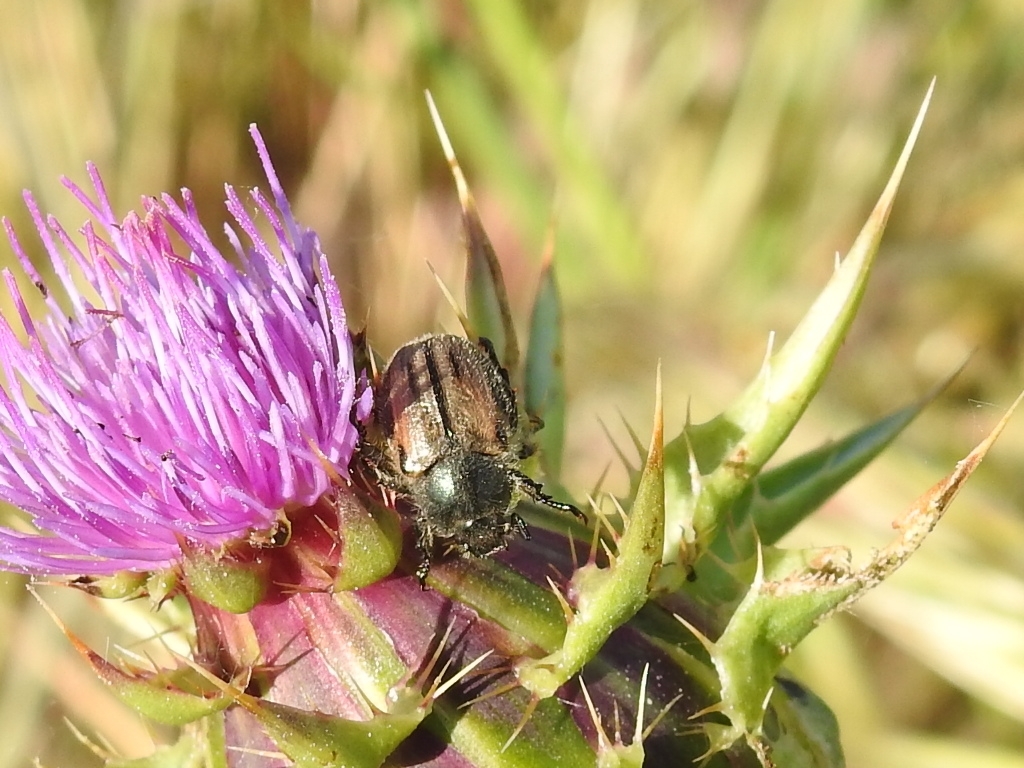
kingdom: Animalia
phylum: Arthropoda
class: Insecta
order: Coleoptera
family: Scarabaeidae
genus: Blitopertha
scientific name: Blitopertha lineolata
